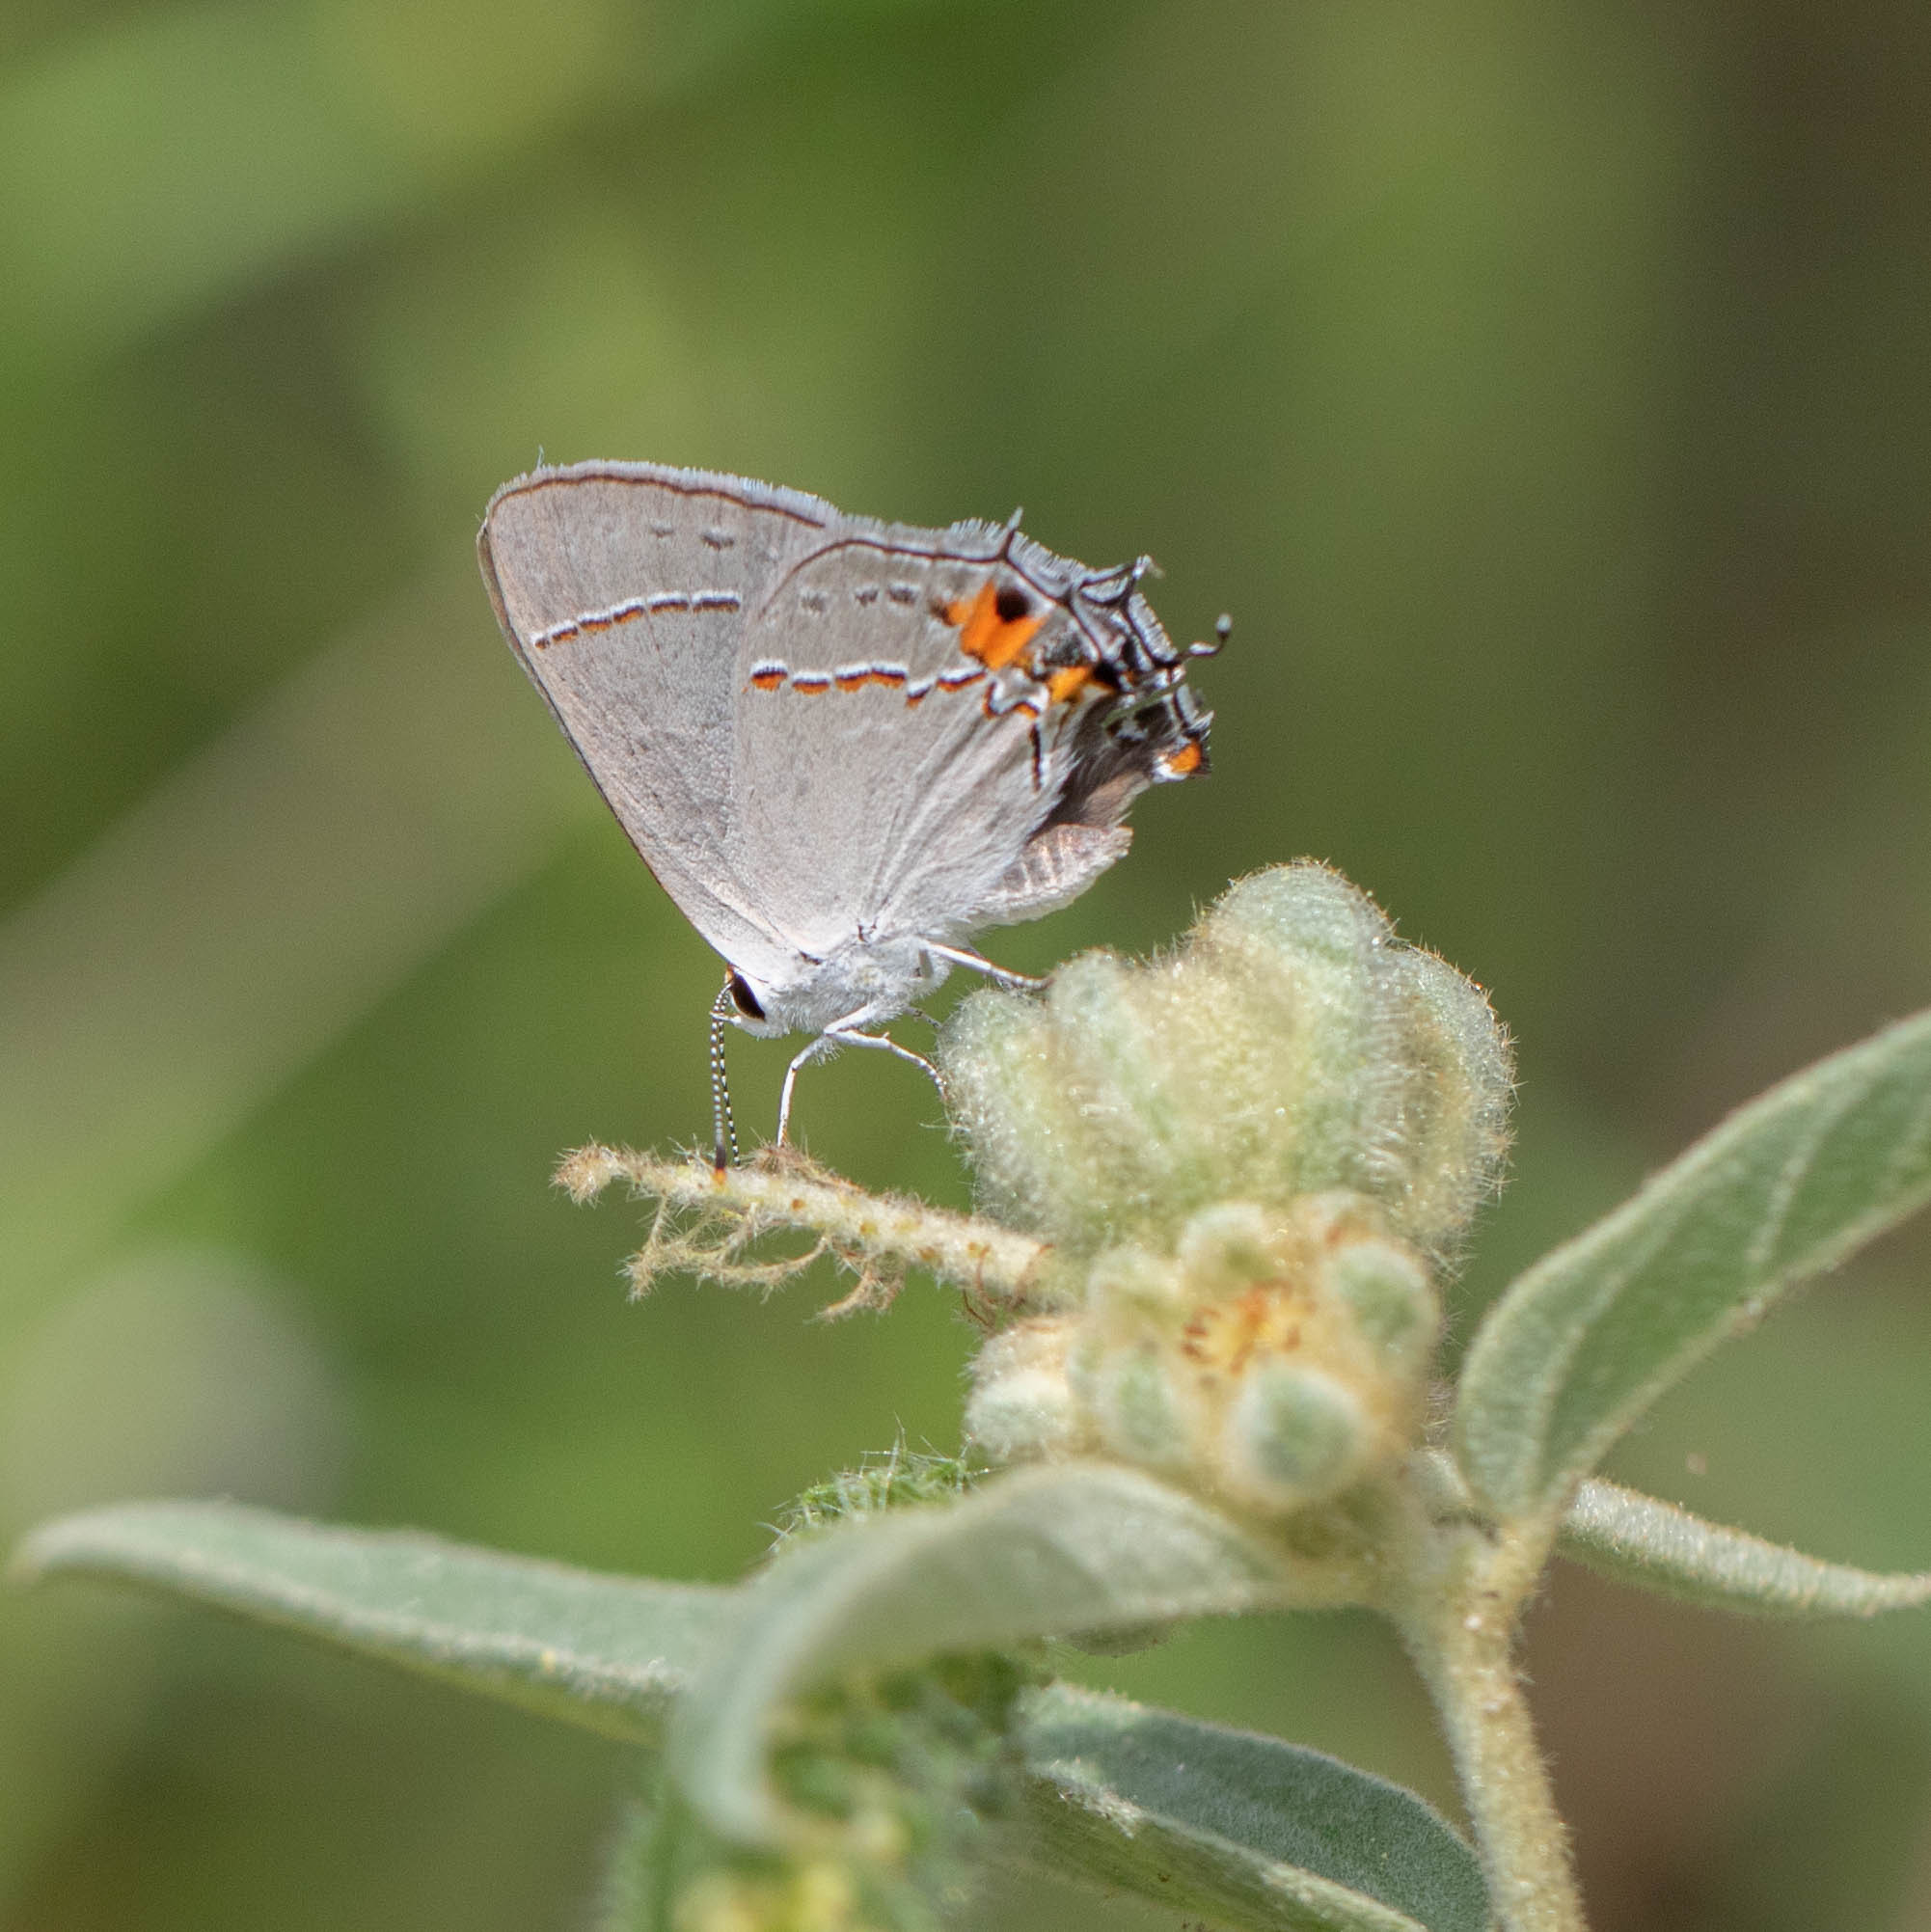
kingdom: Animalia
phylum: Arthropoda
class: Insecta
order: Lepidoptera
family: Lycaenidae
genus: Strymon
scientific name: Strymon melinus
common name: Gray hairstreak
